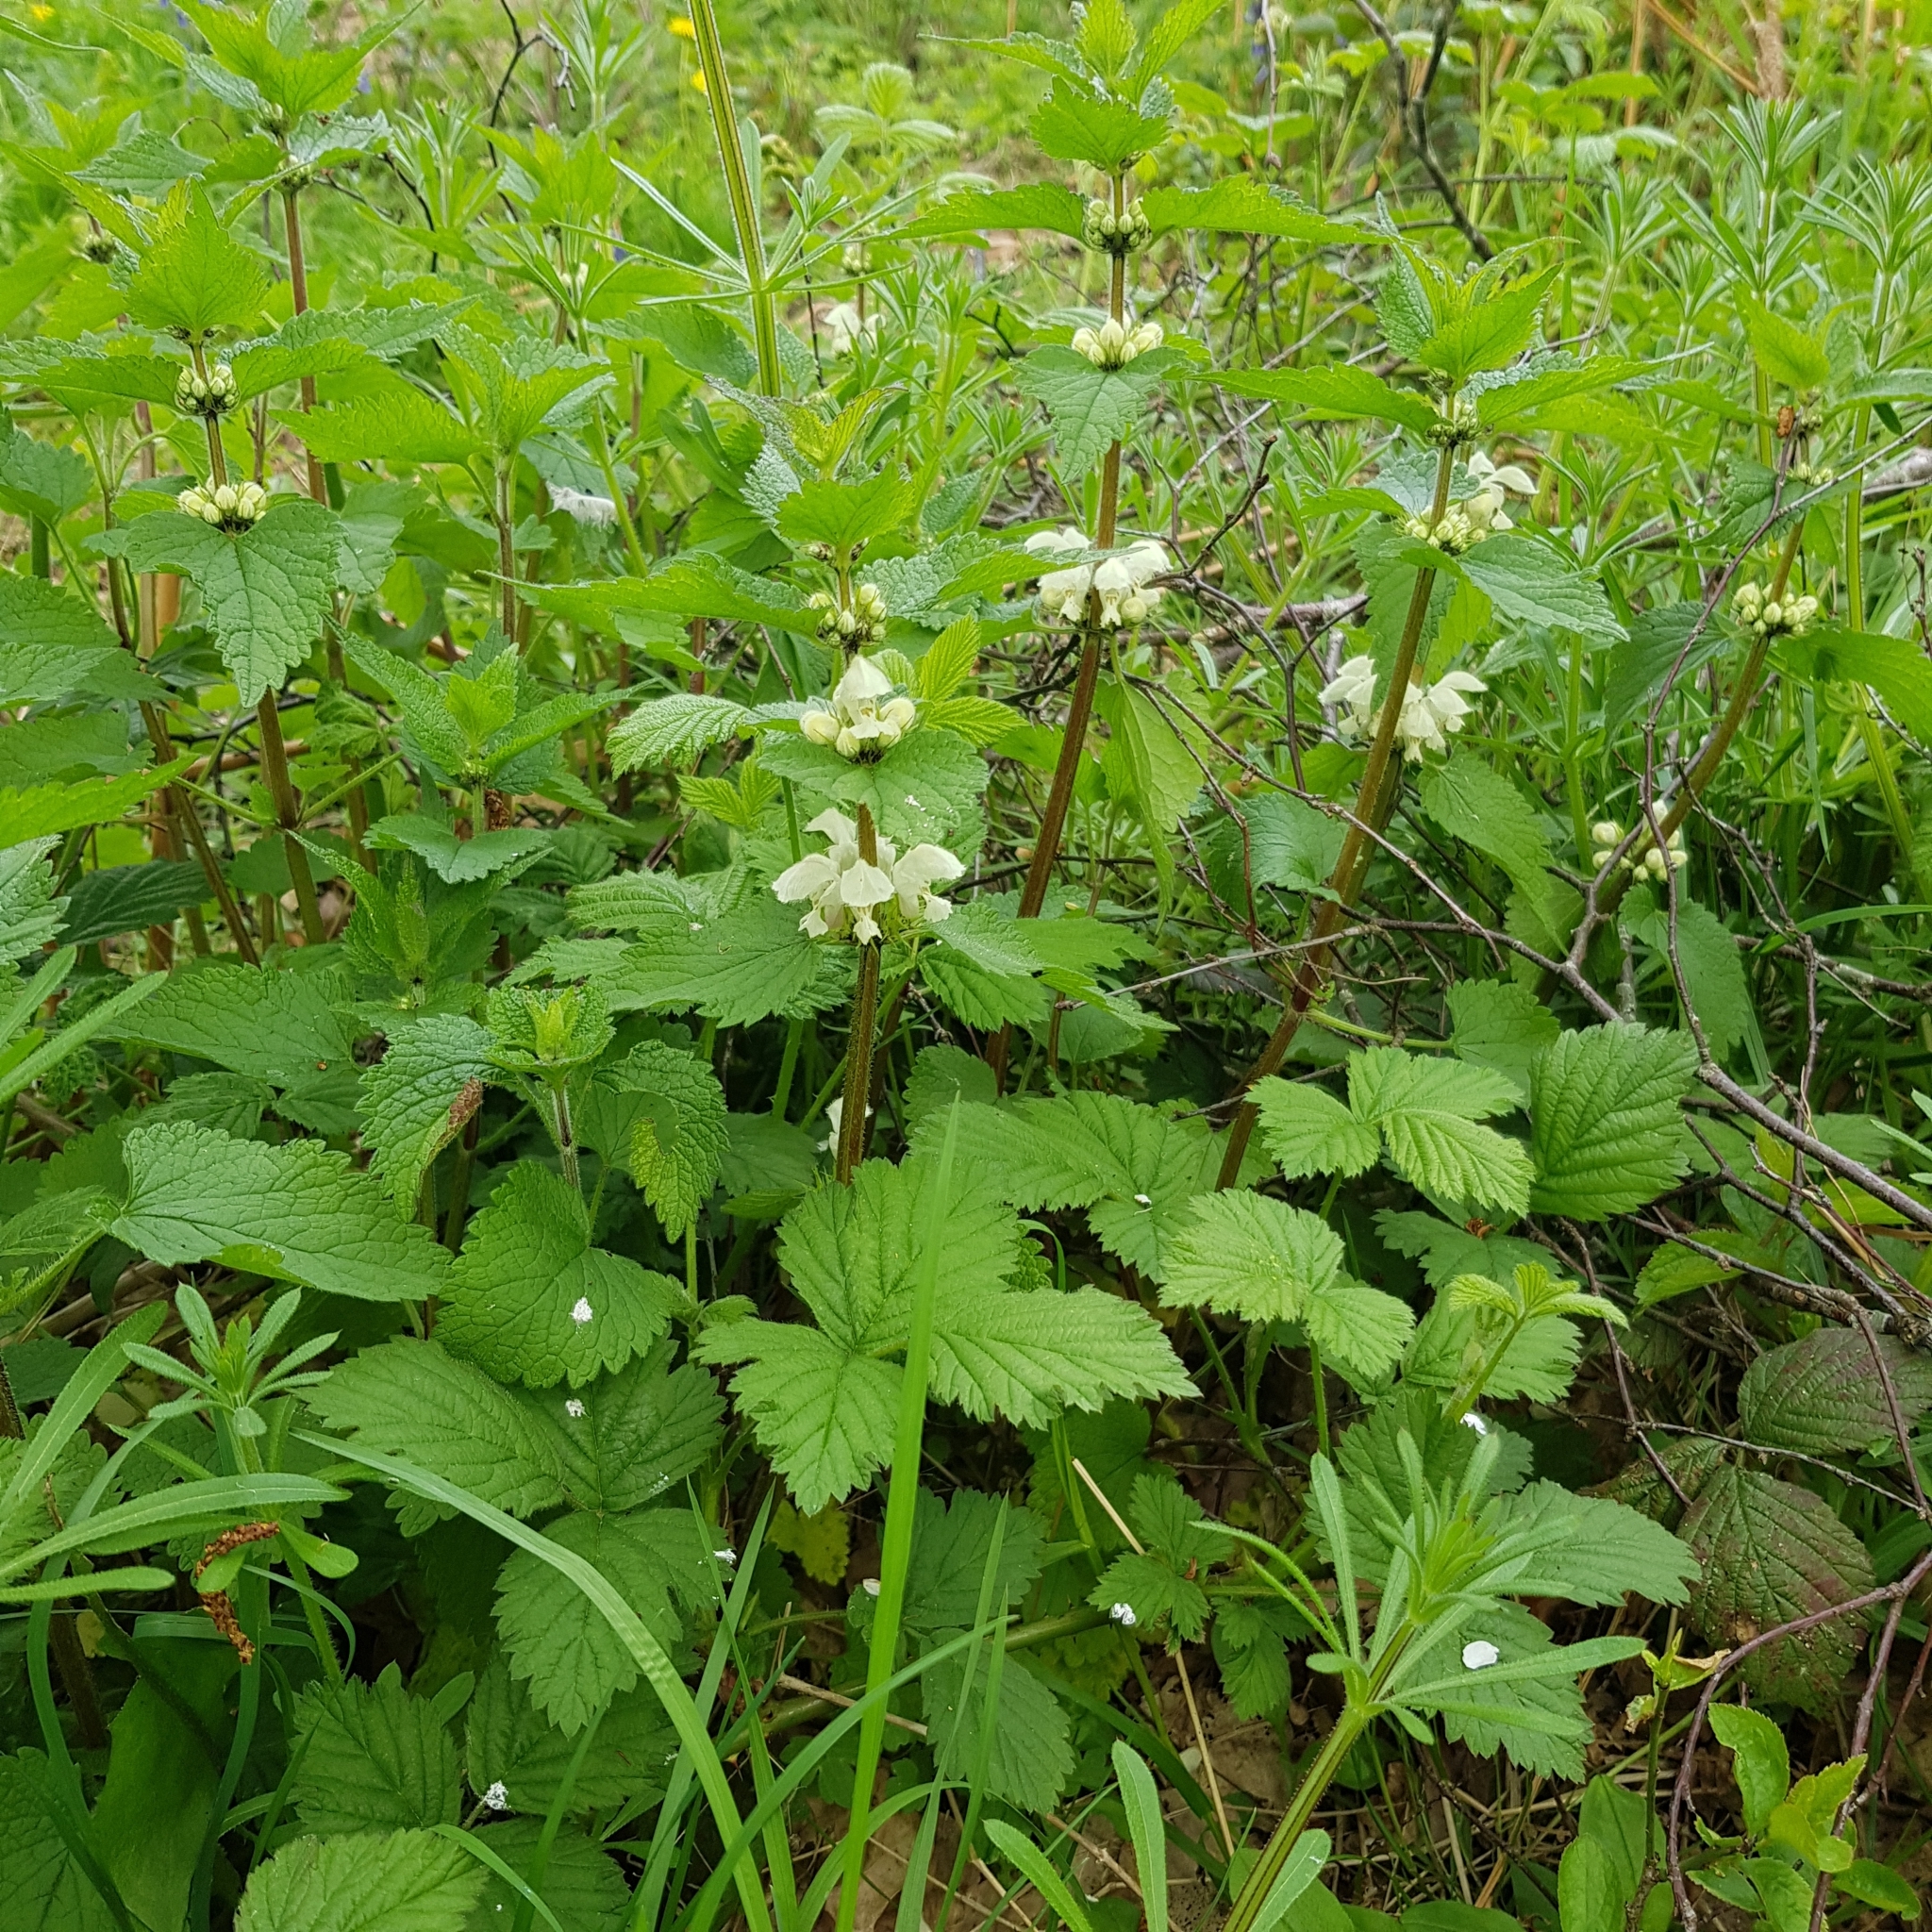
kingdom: Plantae
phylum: Tracheophyta
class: Magnoliopsida
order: Lamiales
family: Lamiaceae
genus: Lamium
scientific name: Lamium album
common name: White dead-nettle
